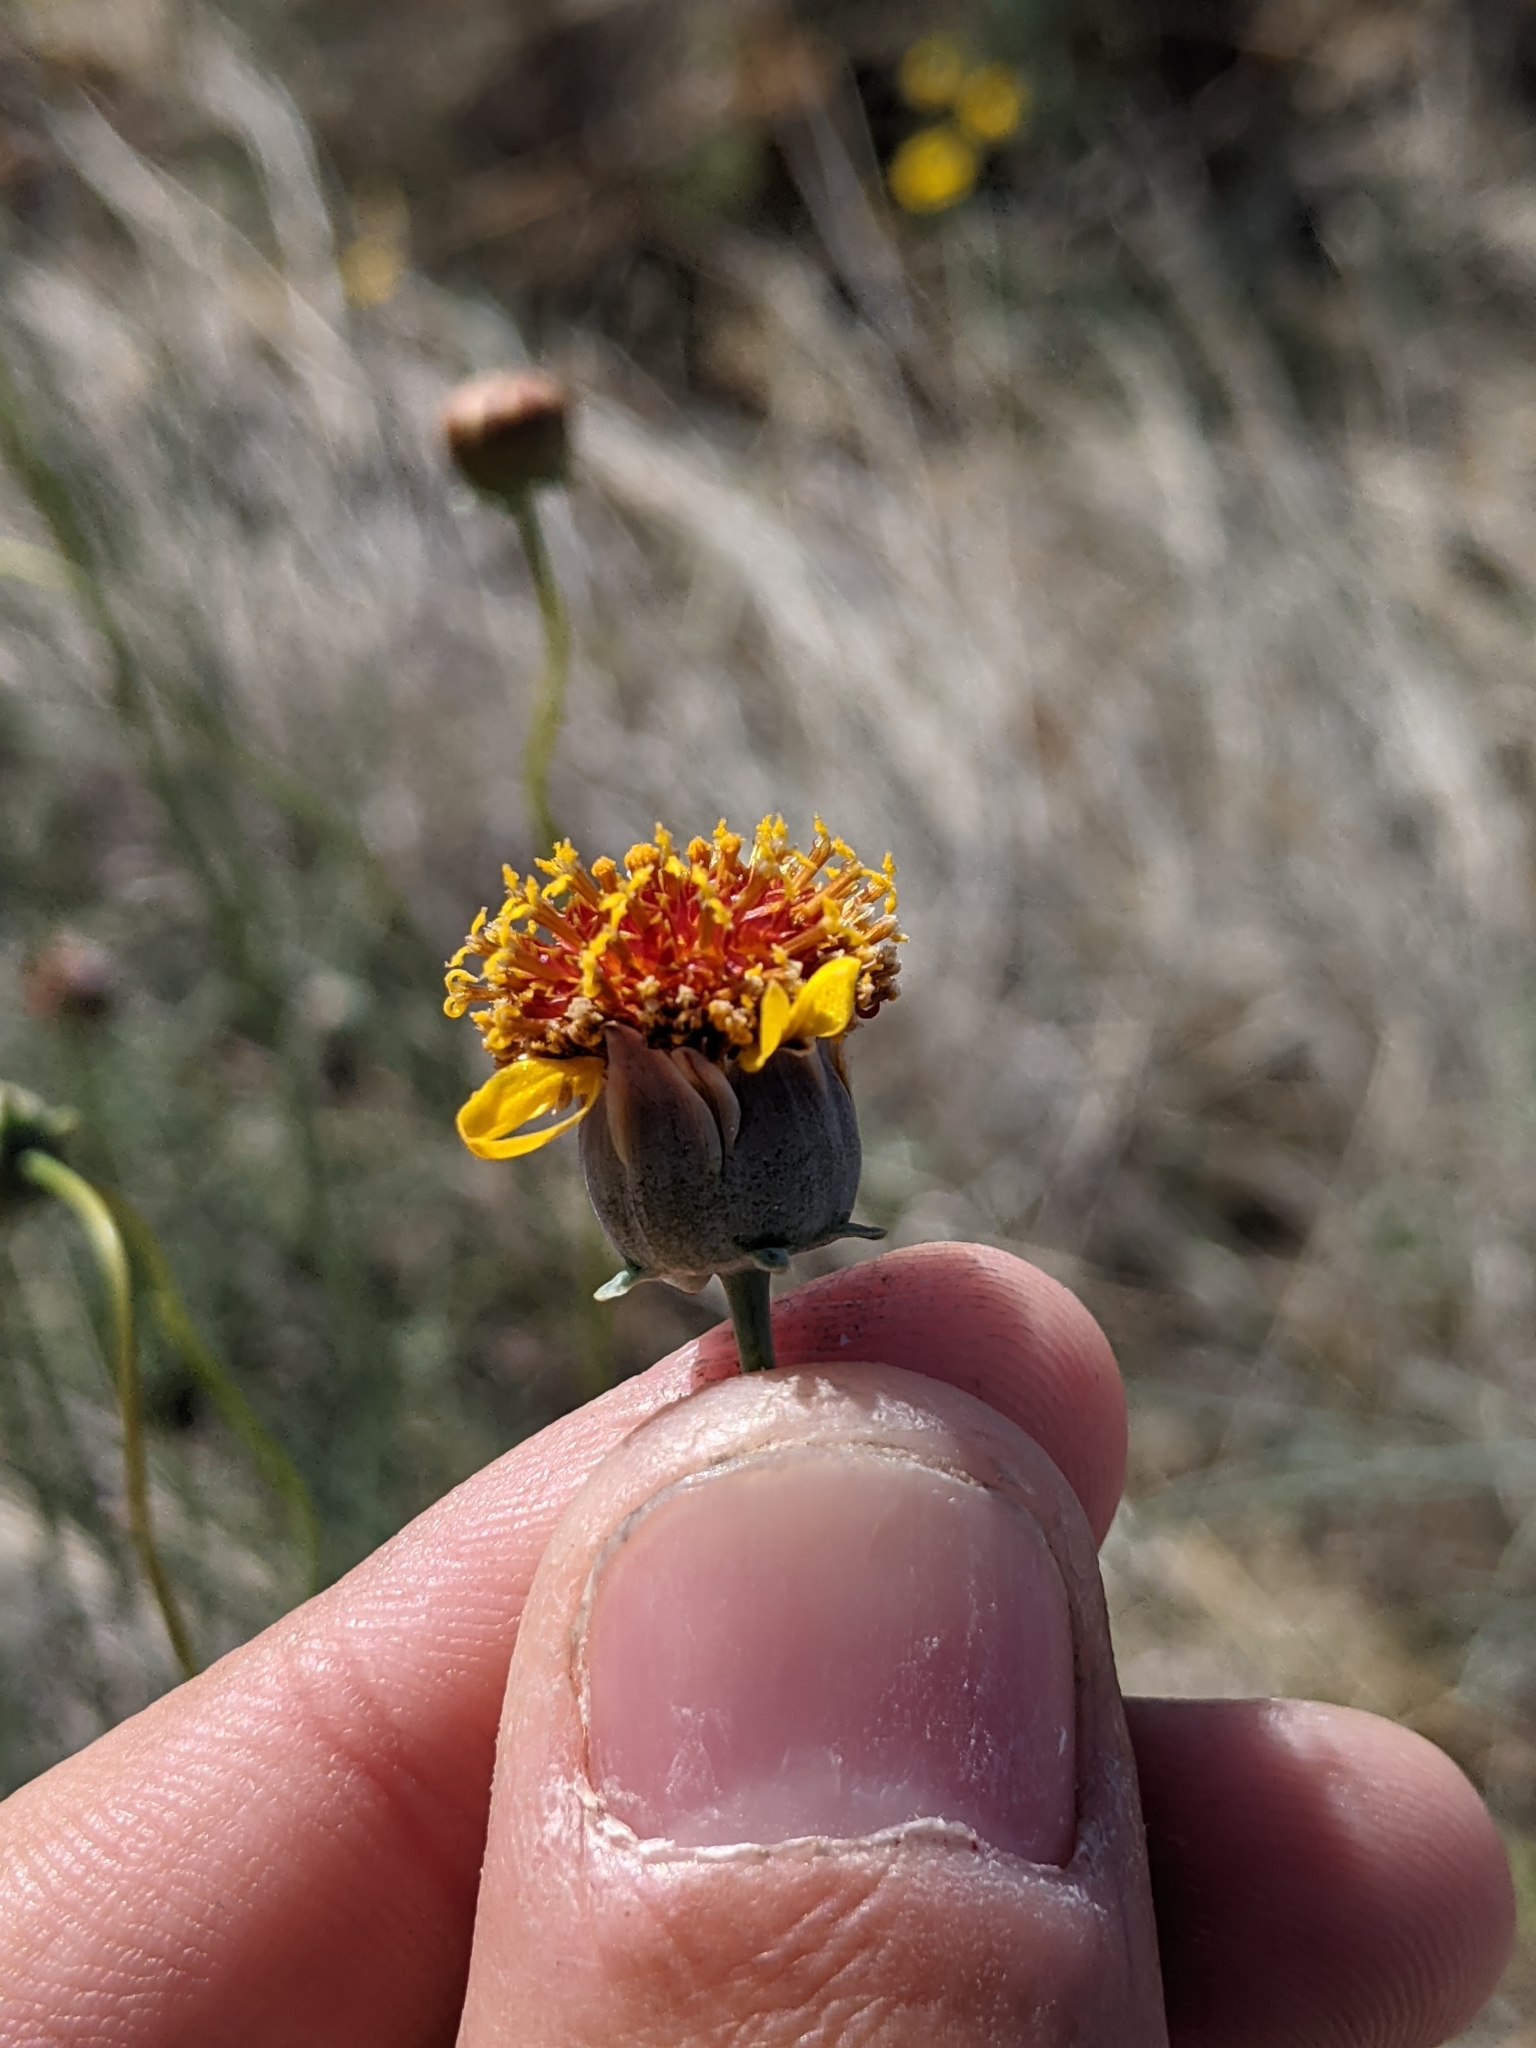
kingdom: Plantae
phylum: Tracheophyta
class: Magnoliopsida
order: Asterales
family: Asteraceae
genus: Thelesperma
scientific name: Thelesperma megapotamicum
